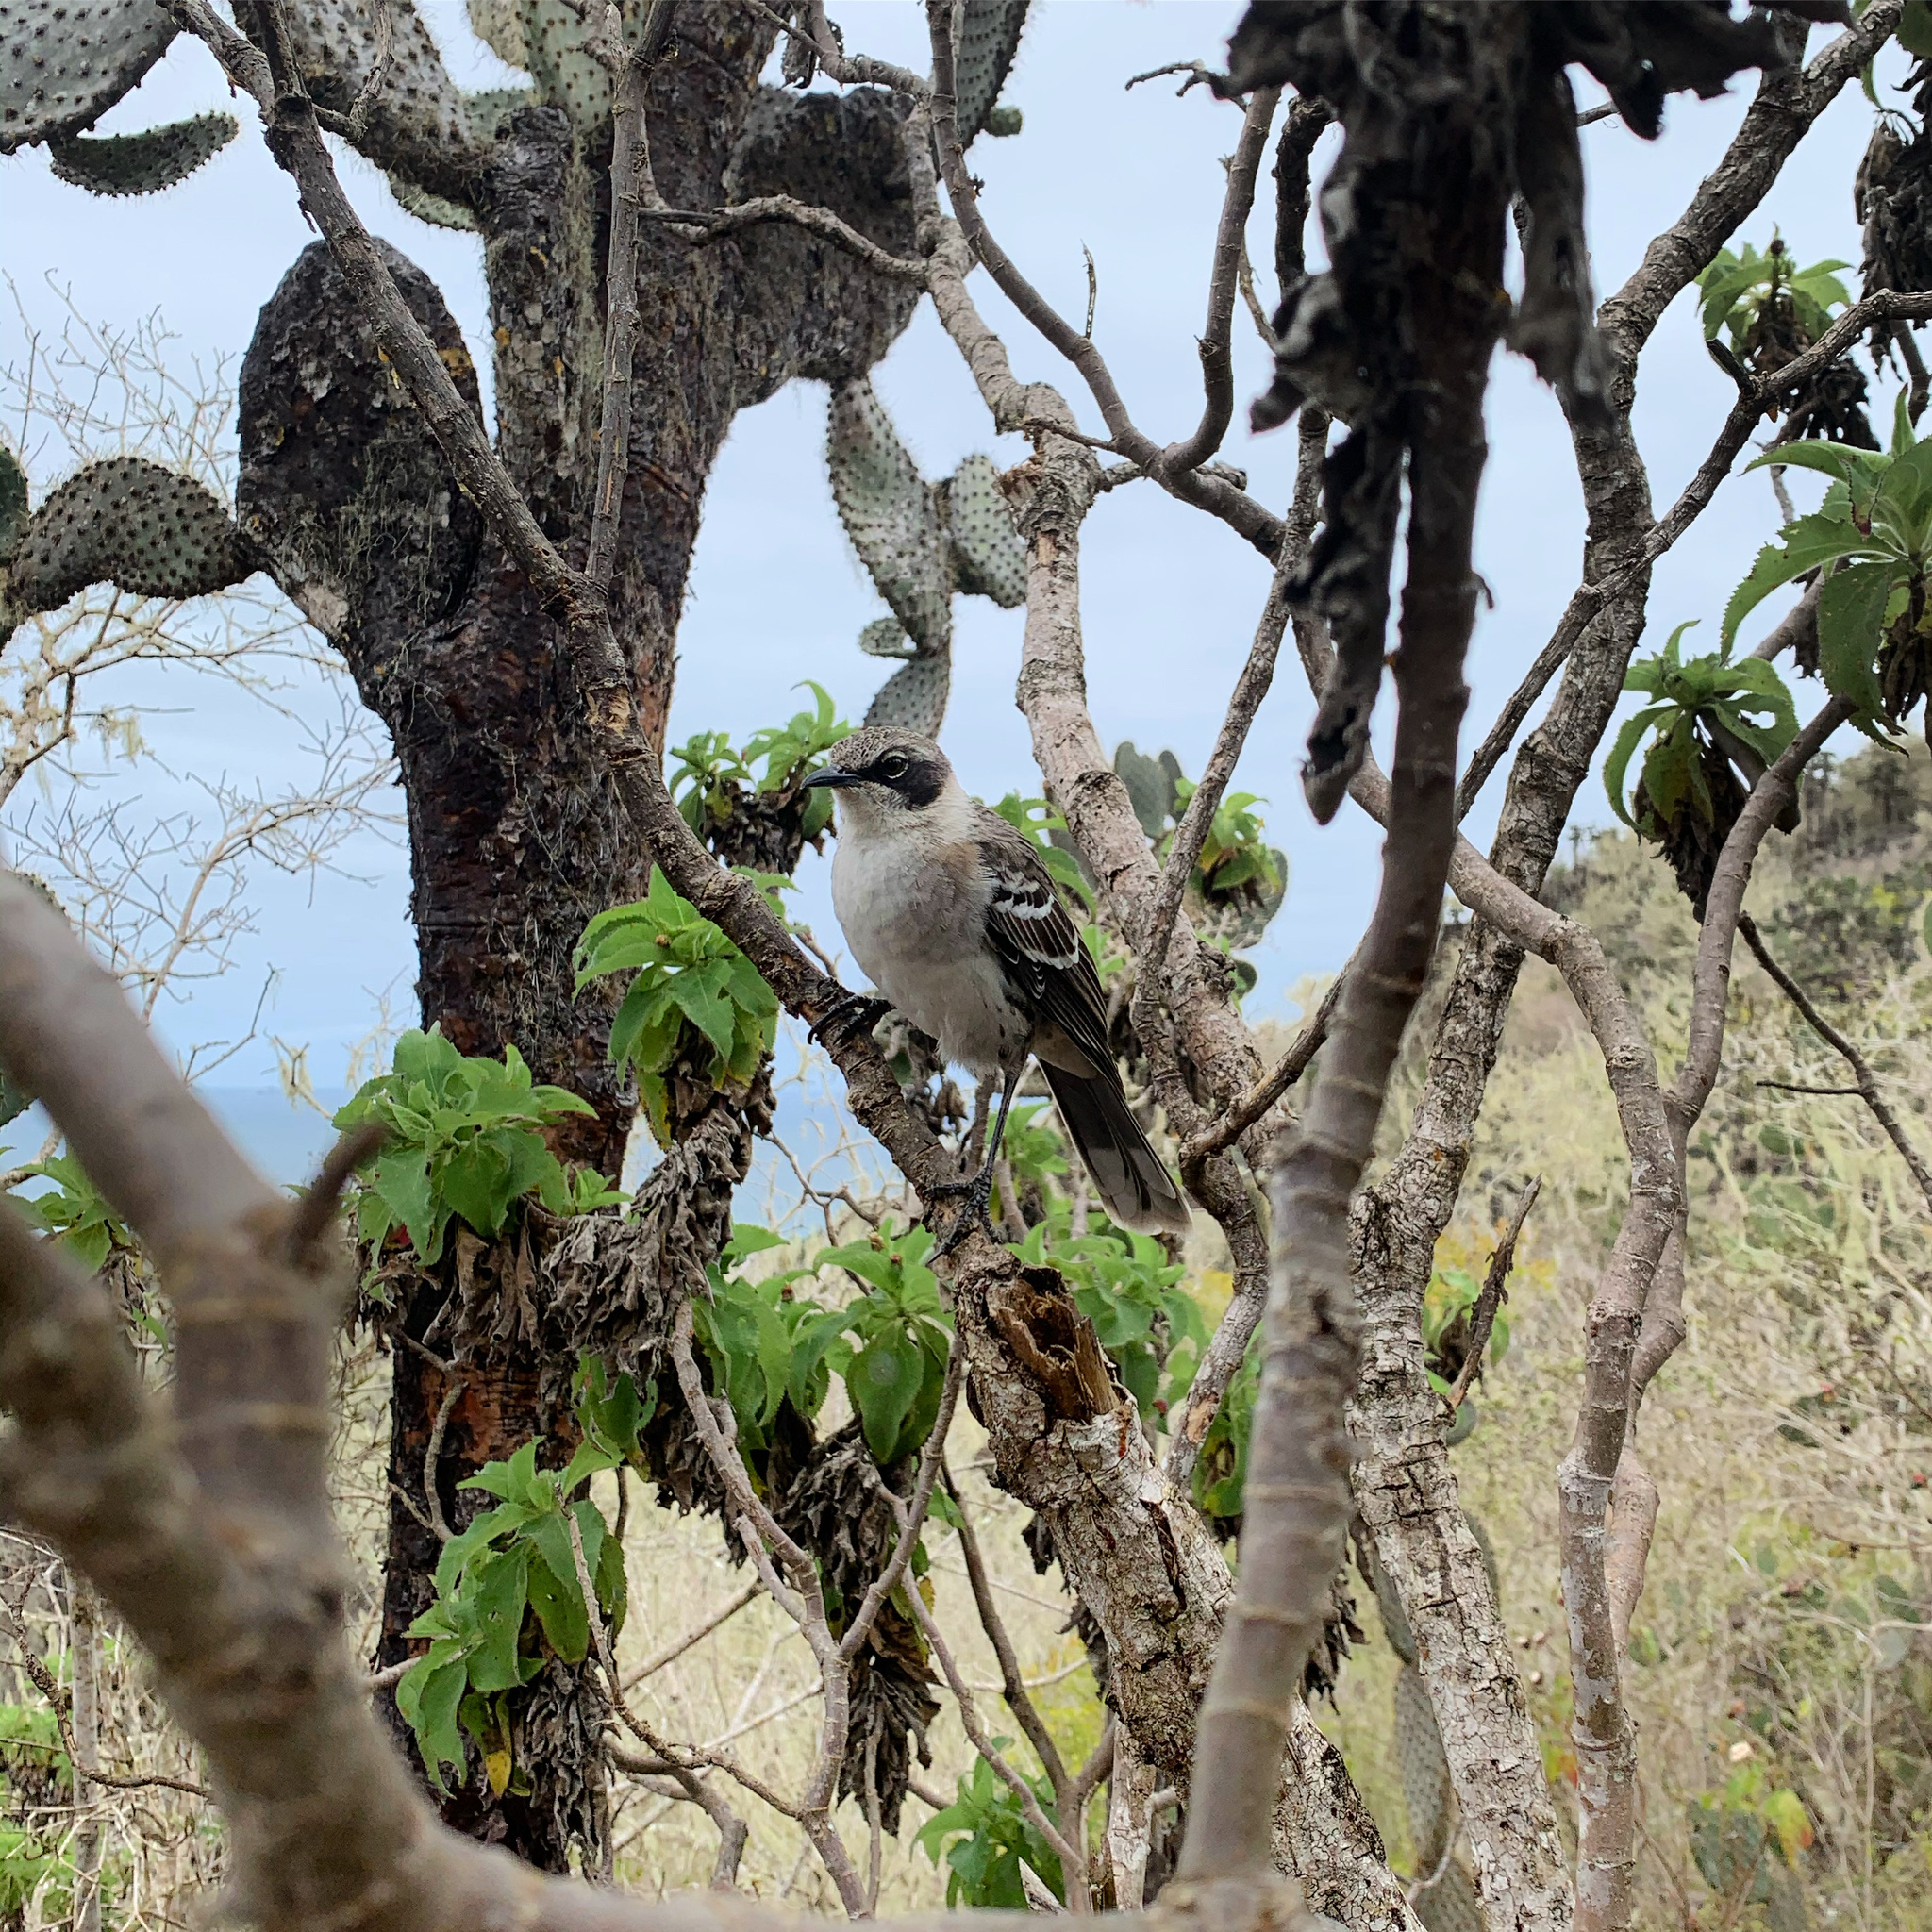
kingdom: Animalia
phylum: Chordata
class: Aves
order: Passeriformes
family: Mimidae
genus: Mimus
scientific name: Mimus parvulus
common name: Galapagos mockingbird
